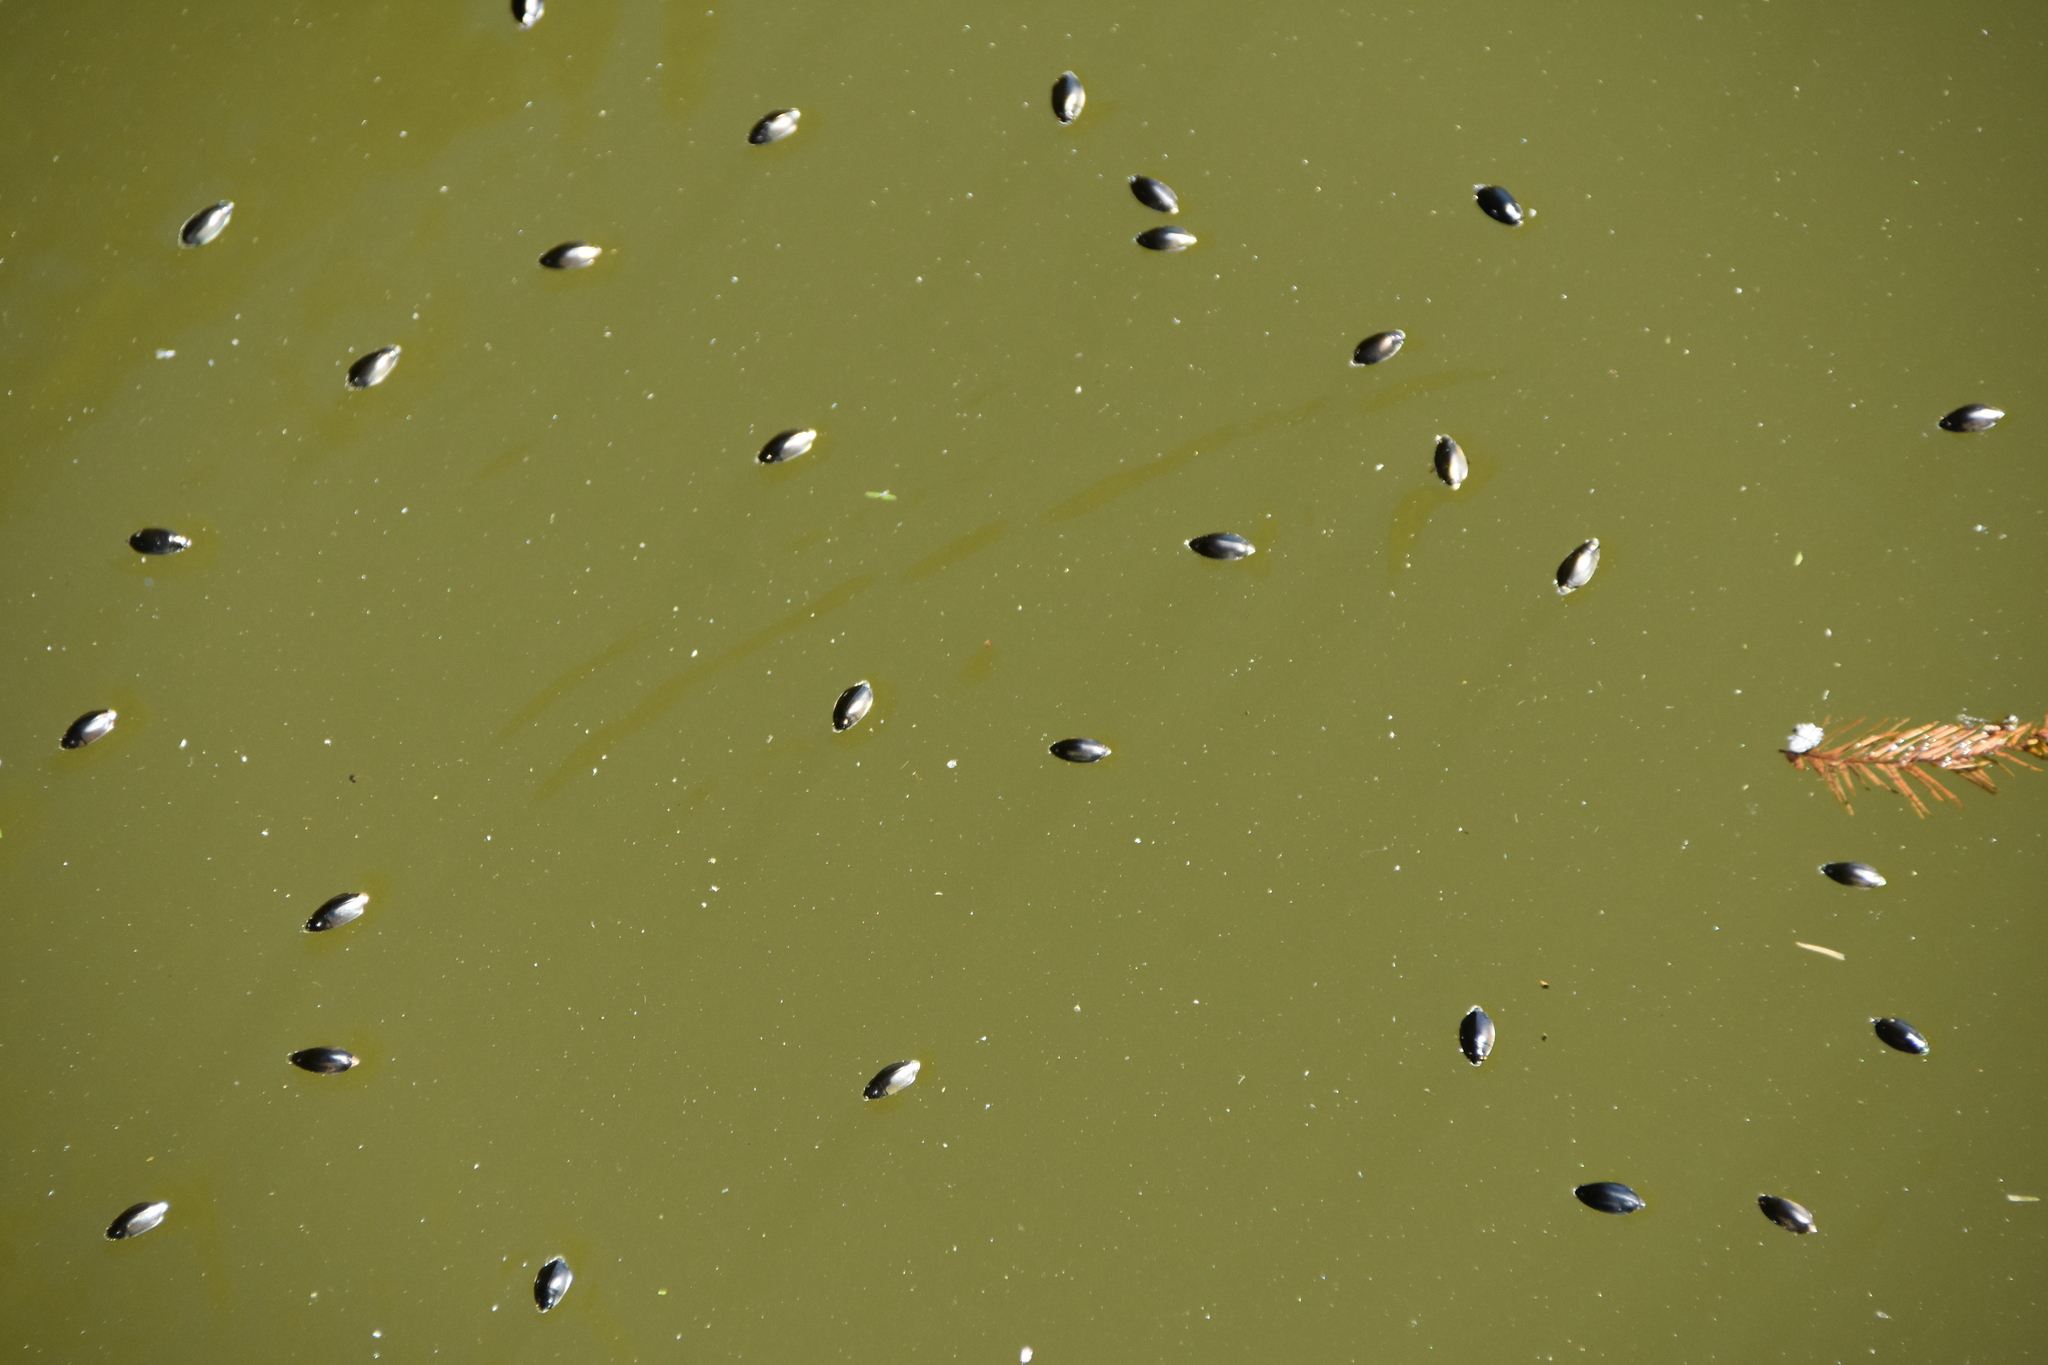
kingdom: Animalia
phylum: Arthropoda
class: Insecta
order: Coleoptera
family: Gyrinidae
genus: Dineutus
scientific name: Dineutus
